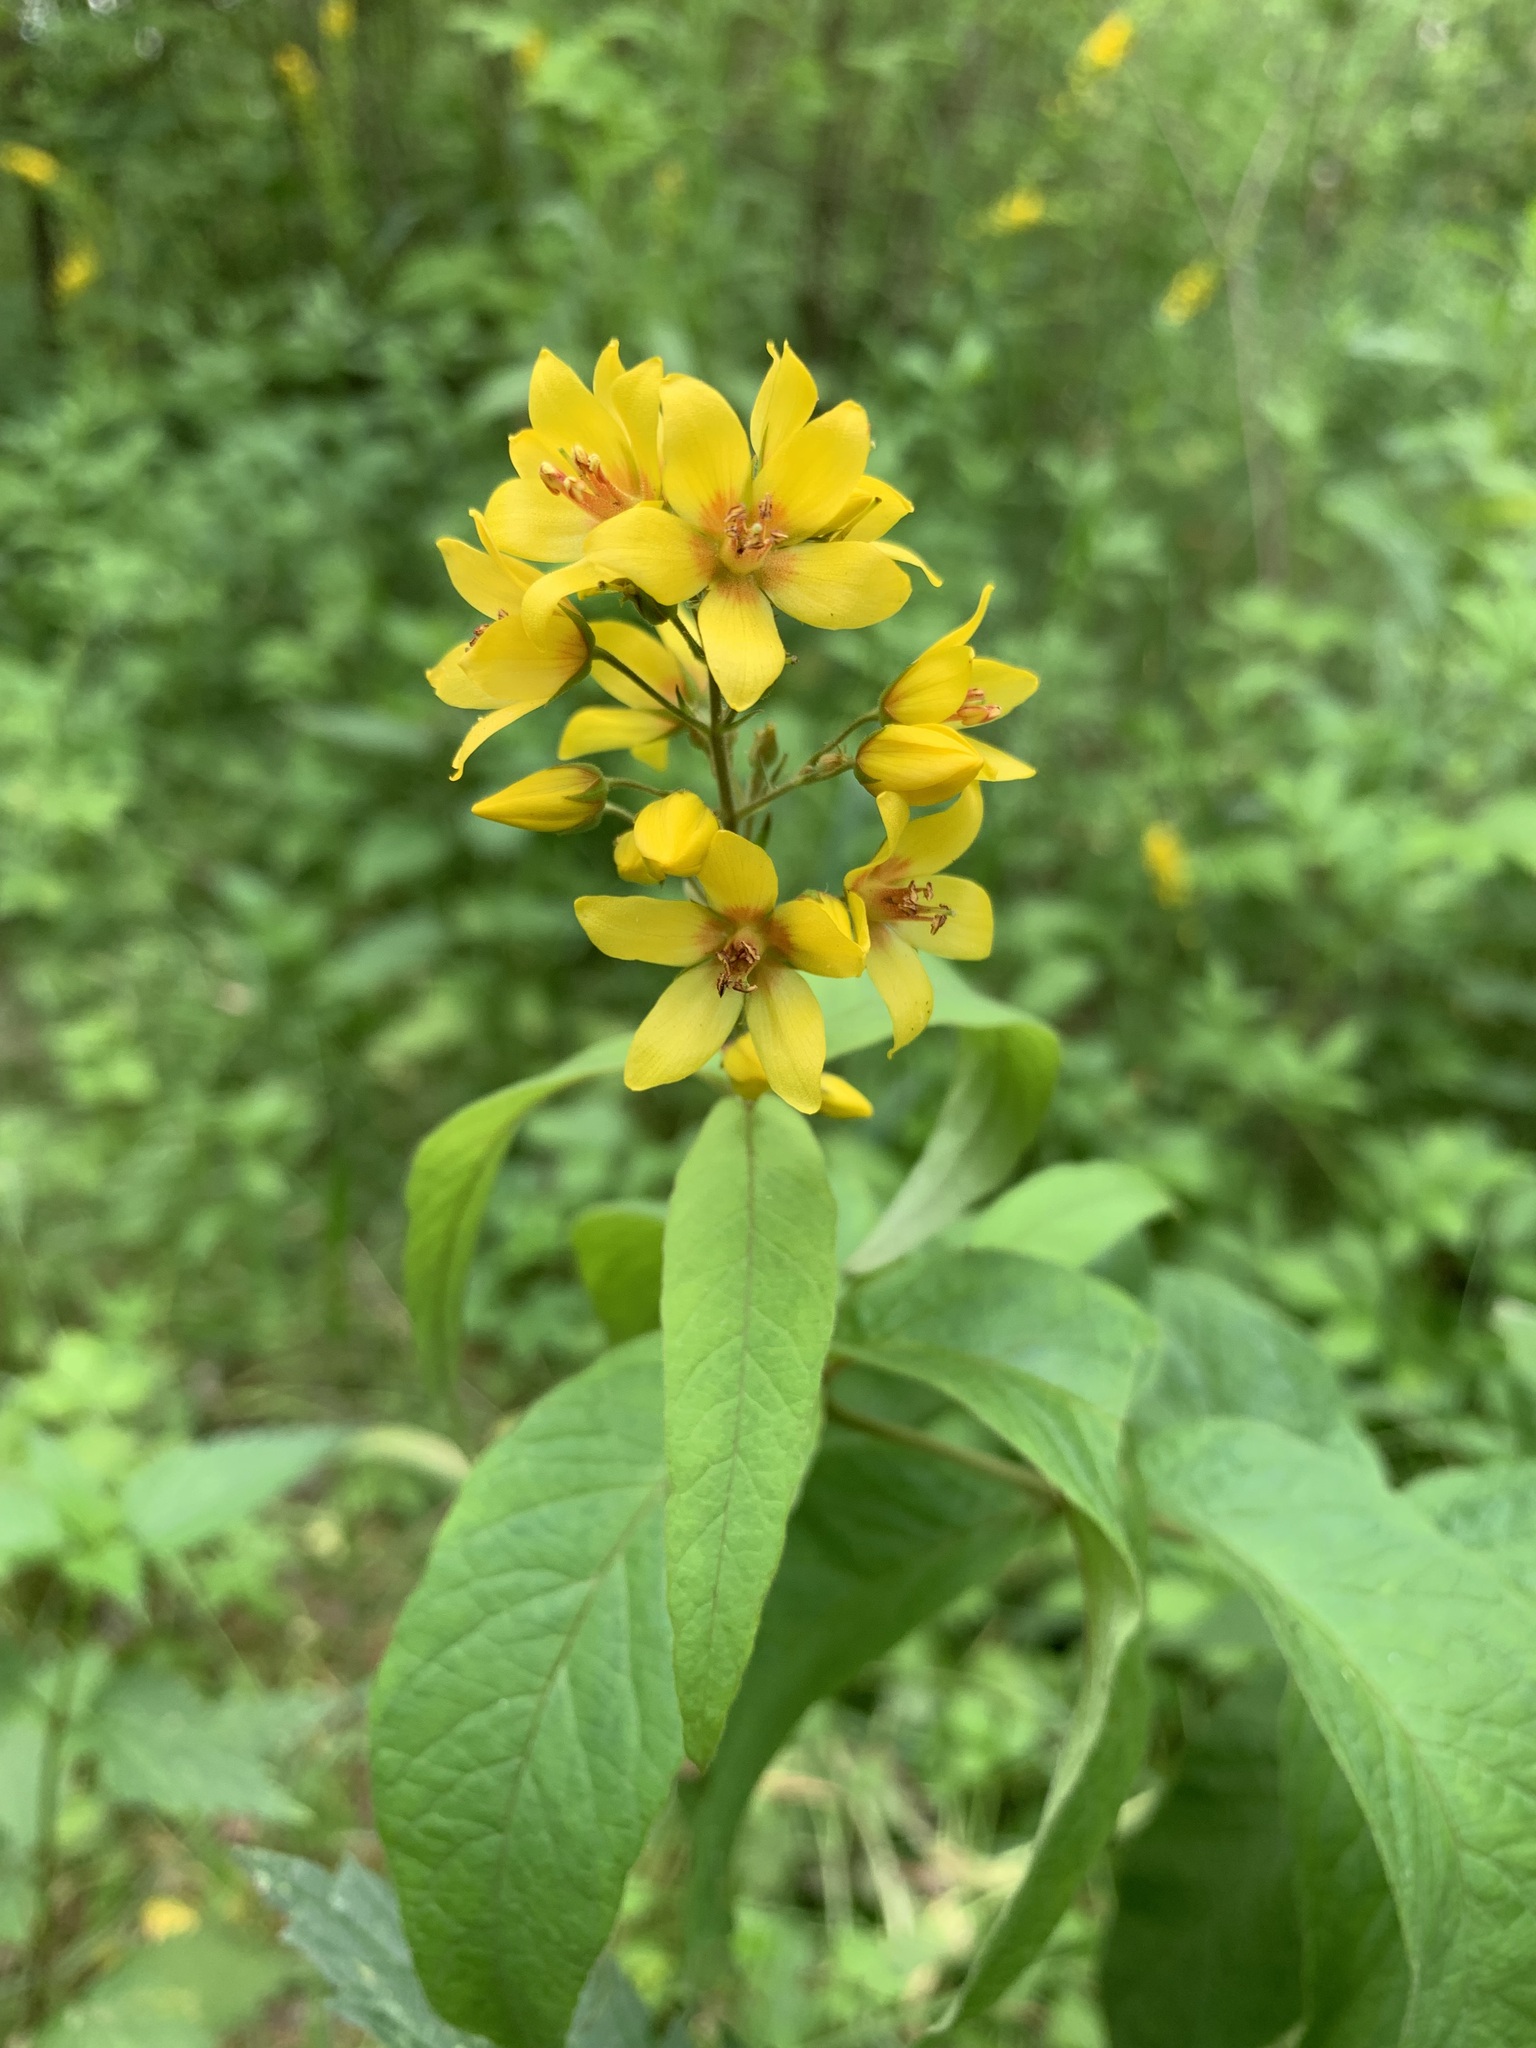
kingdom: Plantae
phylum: Tracheophyta
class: Magnoliopsida
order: Ericales
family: Primulaceae
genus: Lysimachia
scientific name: Lysimachia vulgaris
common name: Yellow loosestrife
